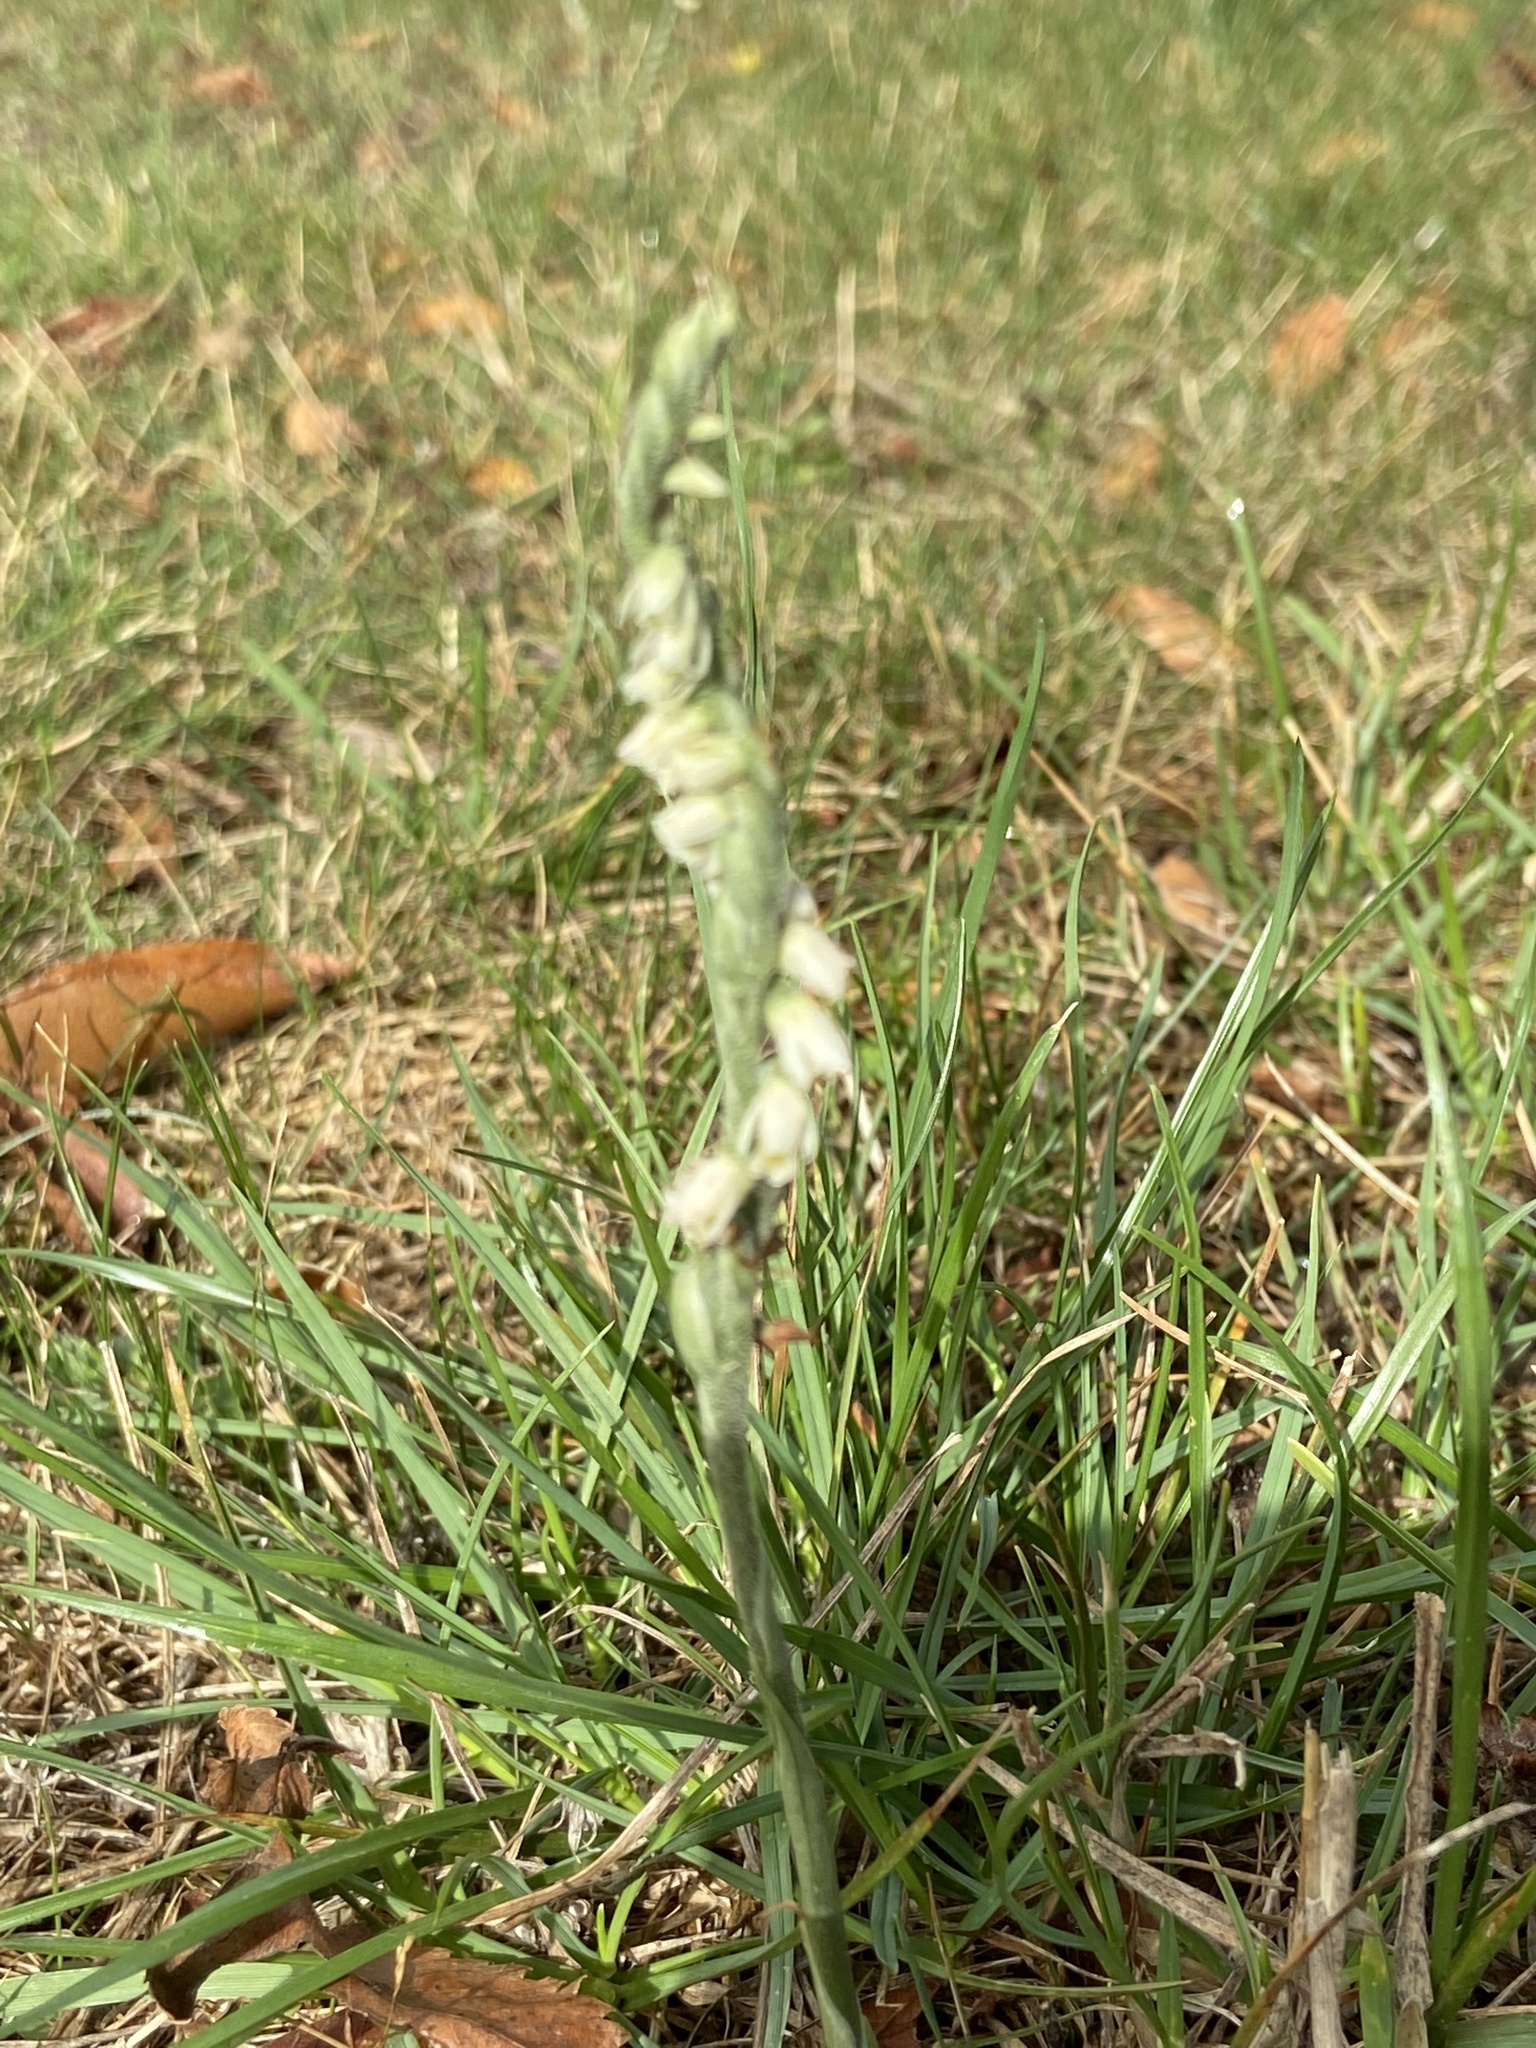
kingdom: Plantae
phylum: Tracheophyta
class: Liliopsida
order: Asparagales
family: Orchidaceae
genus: Spiranthes
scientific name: Spiranthes spiralis
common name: Autumn lady's-tresses
